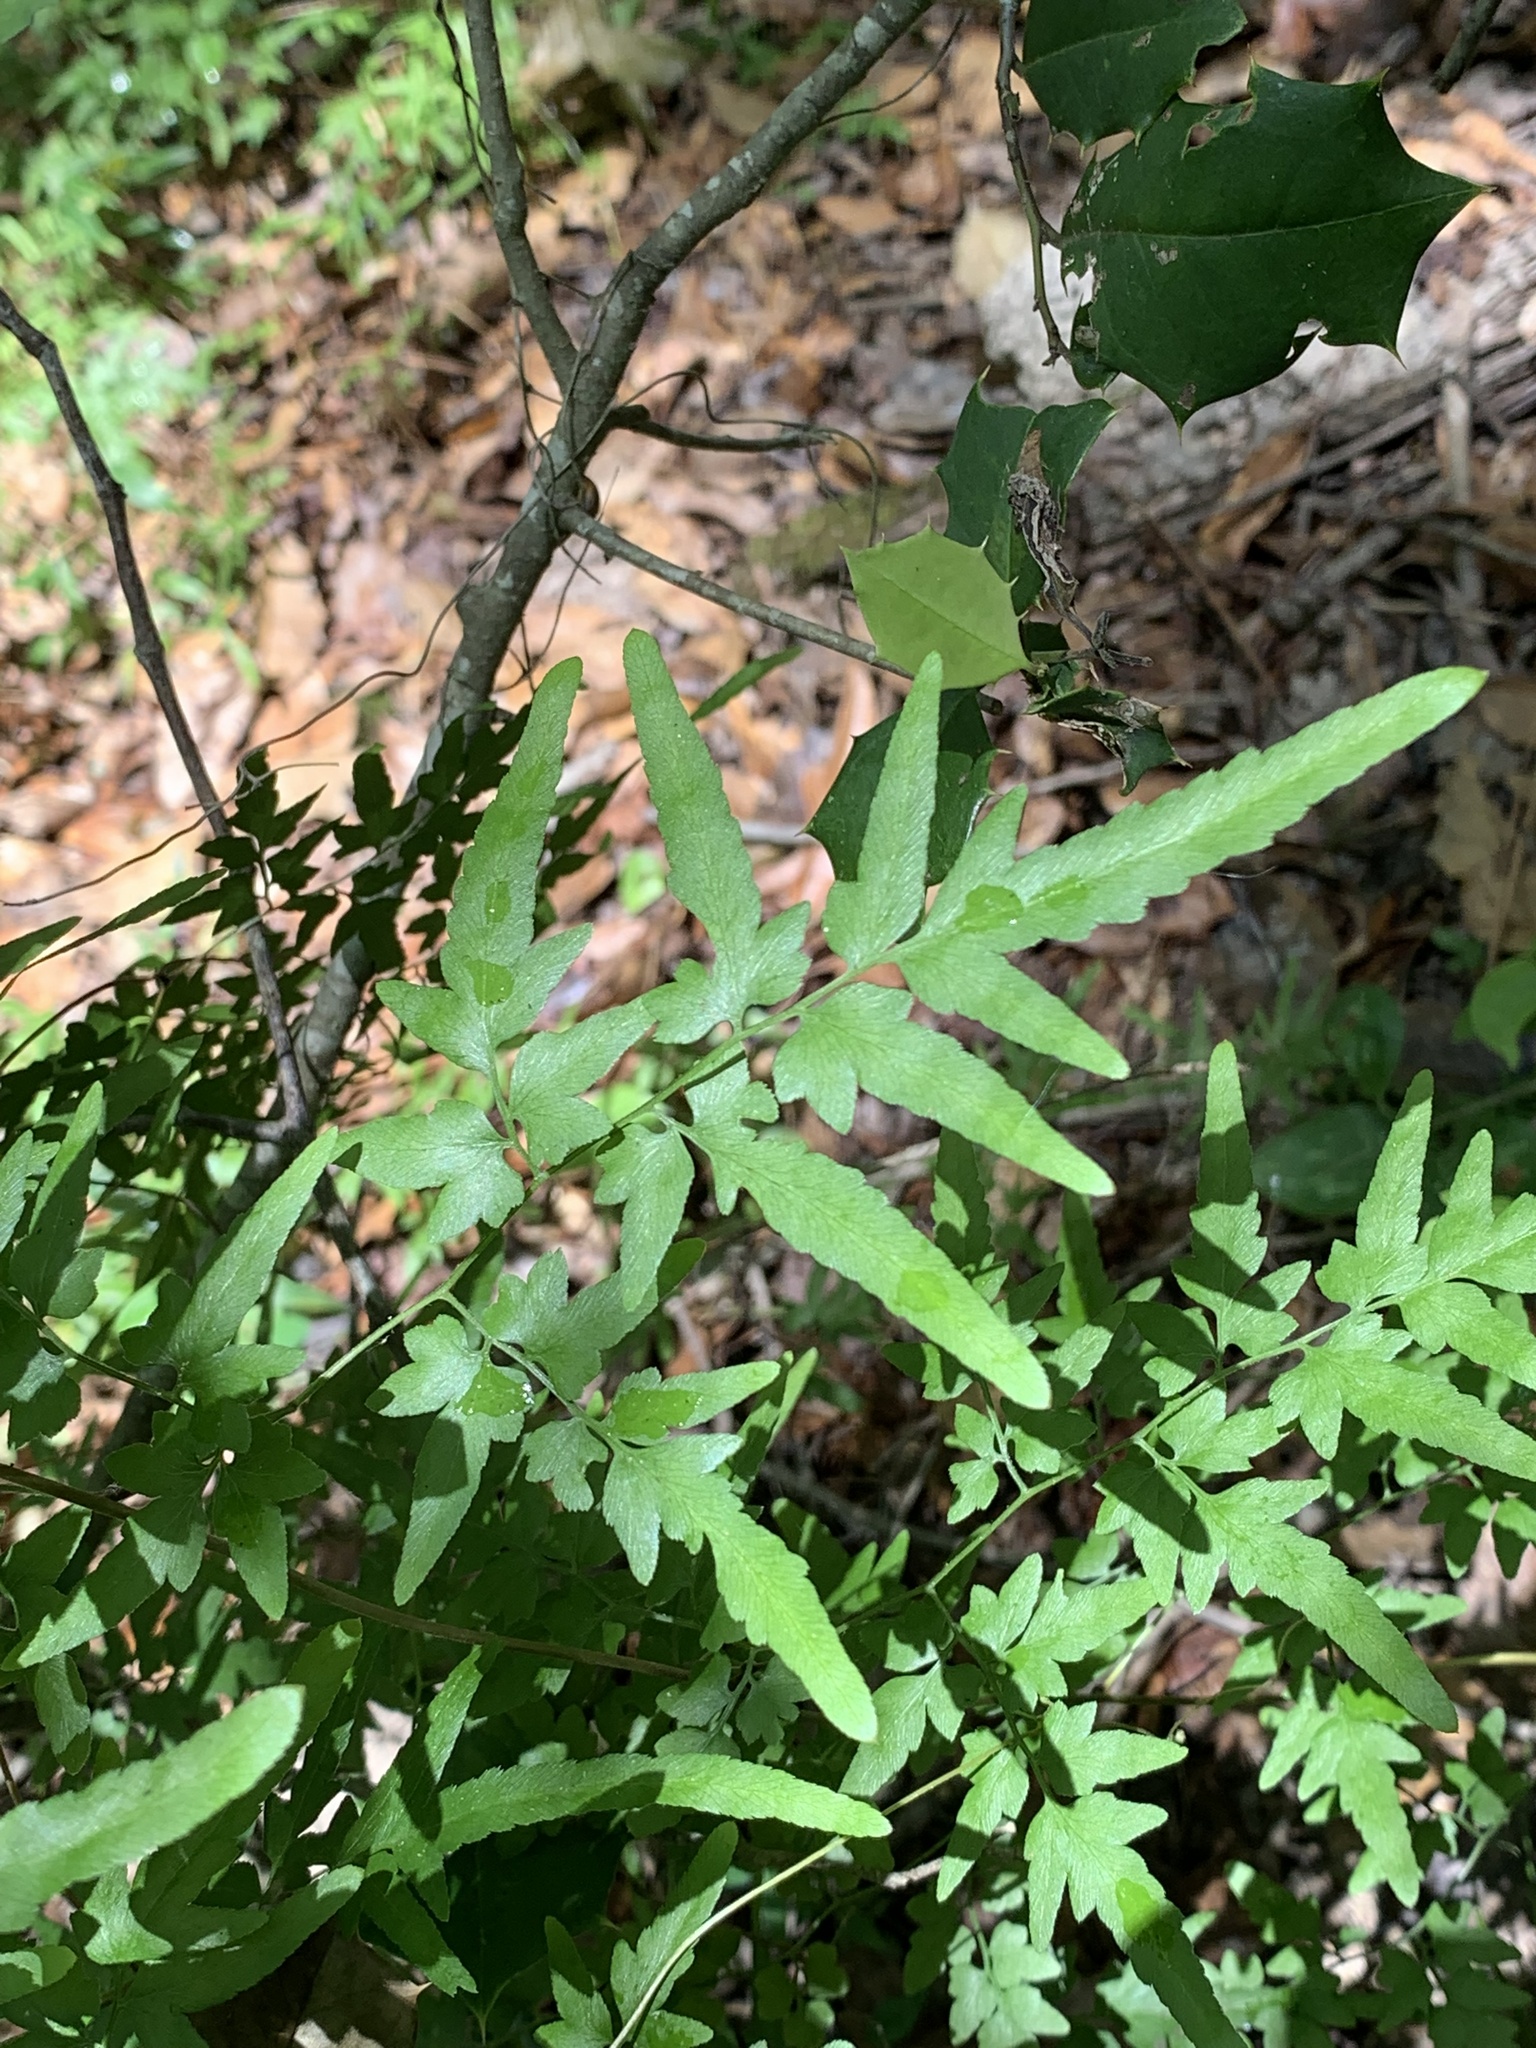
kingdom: Plantae
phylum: Tracheophyta
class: Polypodiopsida
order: Schizaeales
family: Lygodiaceae
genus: Lygodium
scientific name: Lygodium japonicum
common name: Japanese climbing fern
